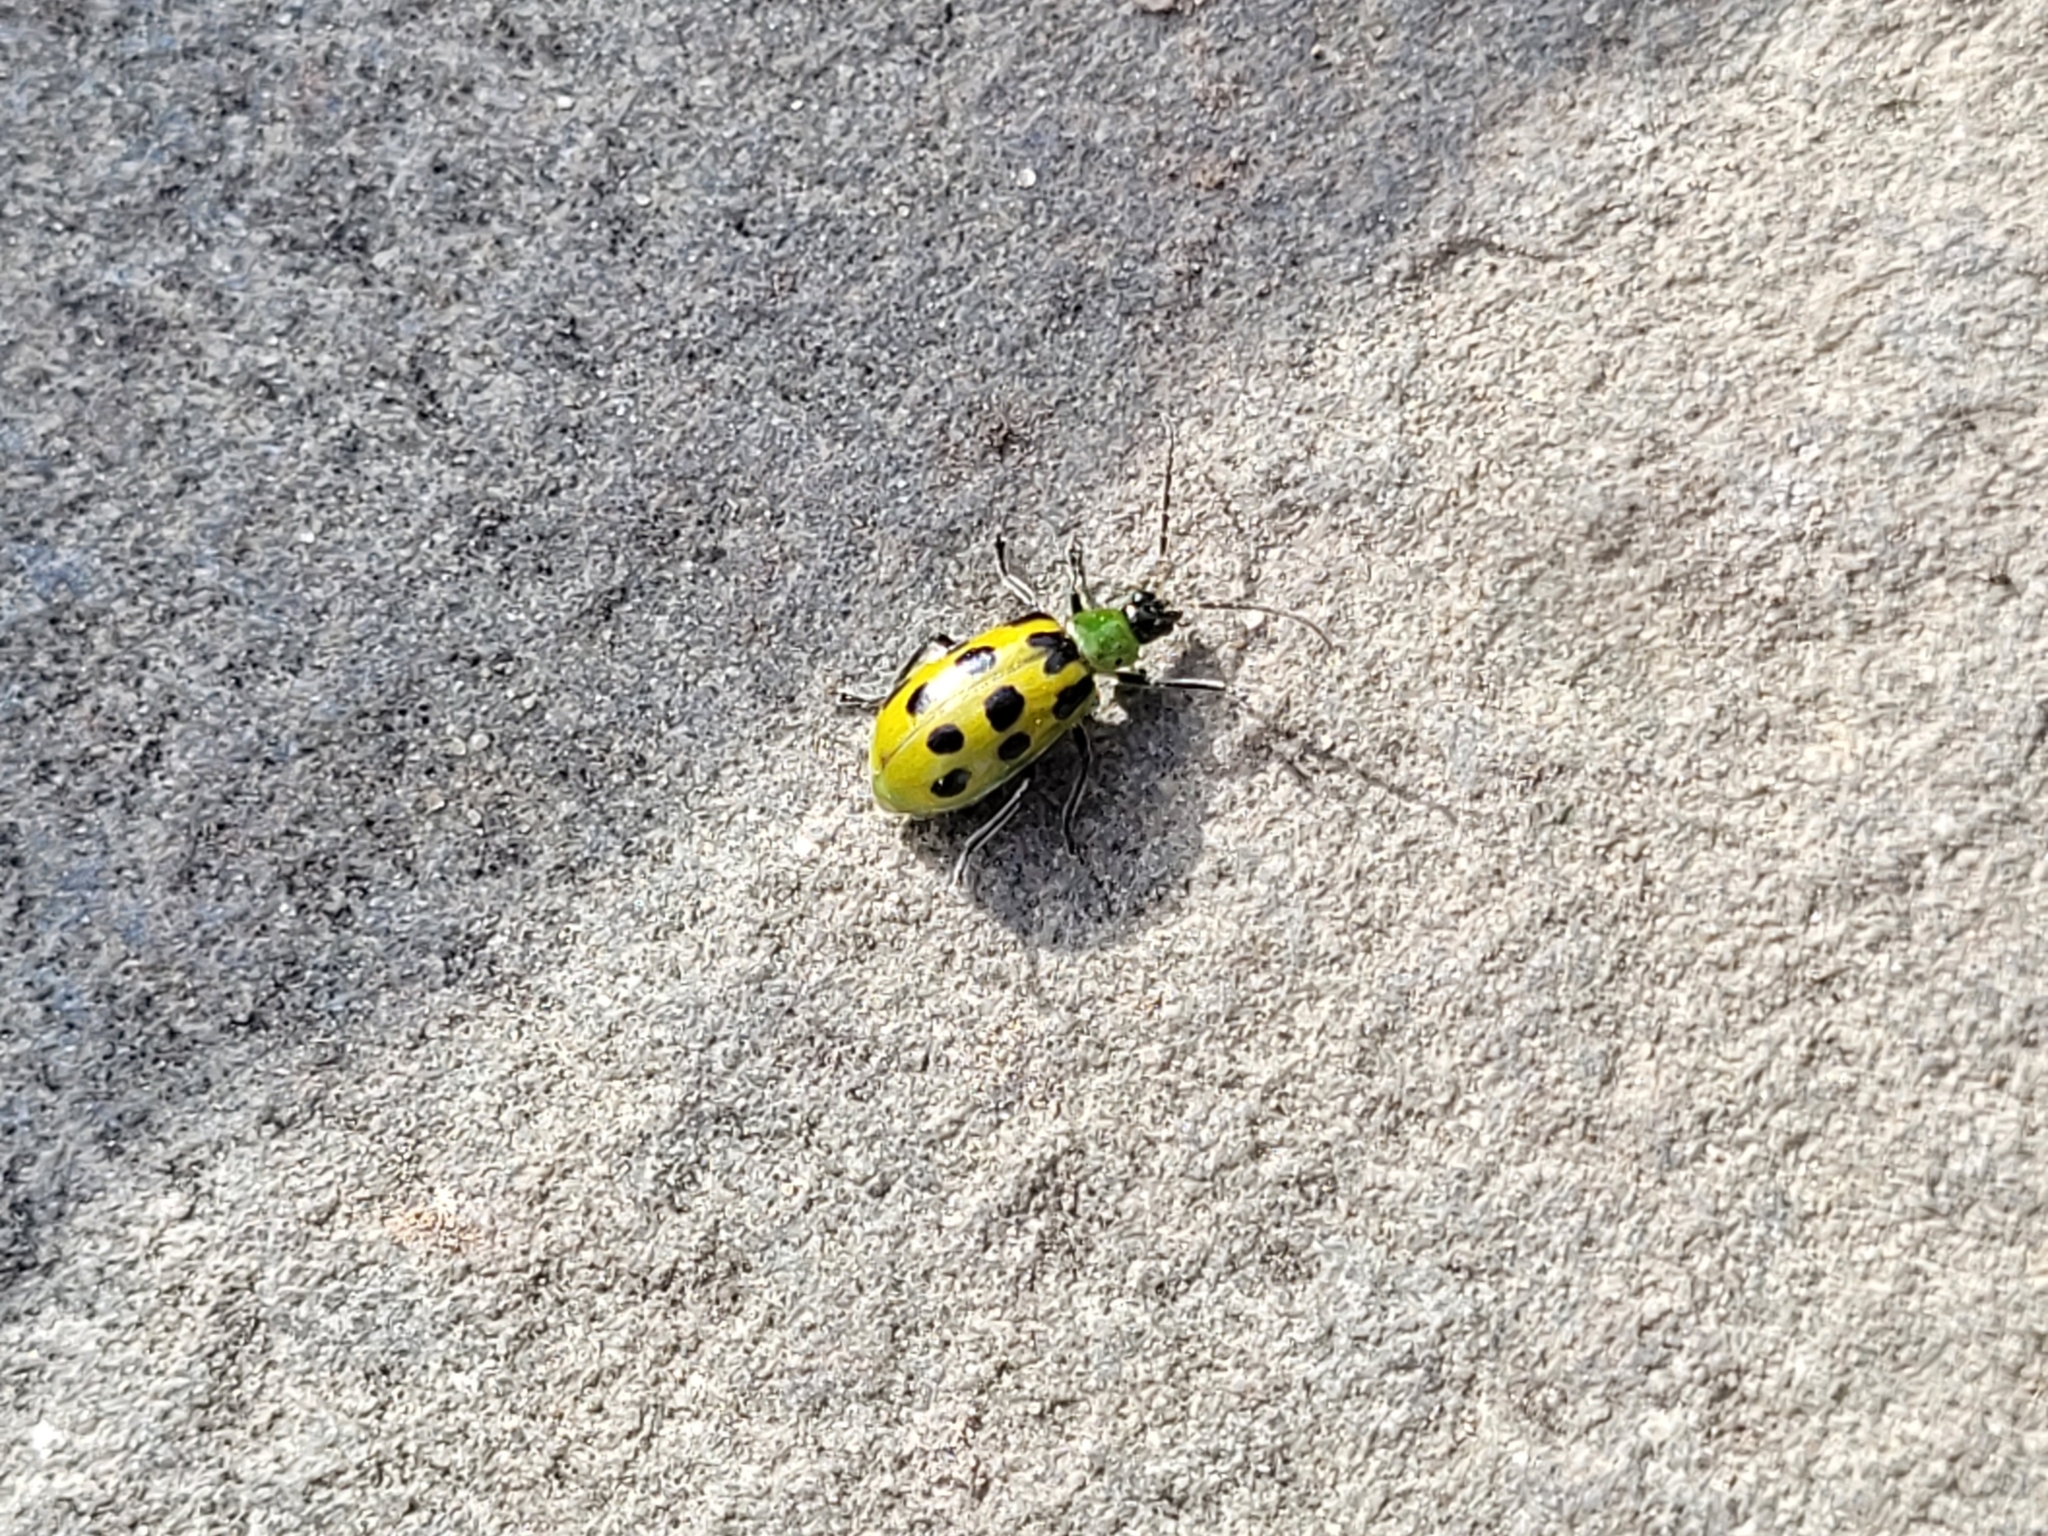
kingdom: Animalia
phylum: Arthropoda
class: Insecta
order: Coleoptera
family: Chrysomelidae
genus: Diabrotica
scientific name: Diabrotica undecimpunctata
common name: Spotted cucumber beetle
